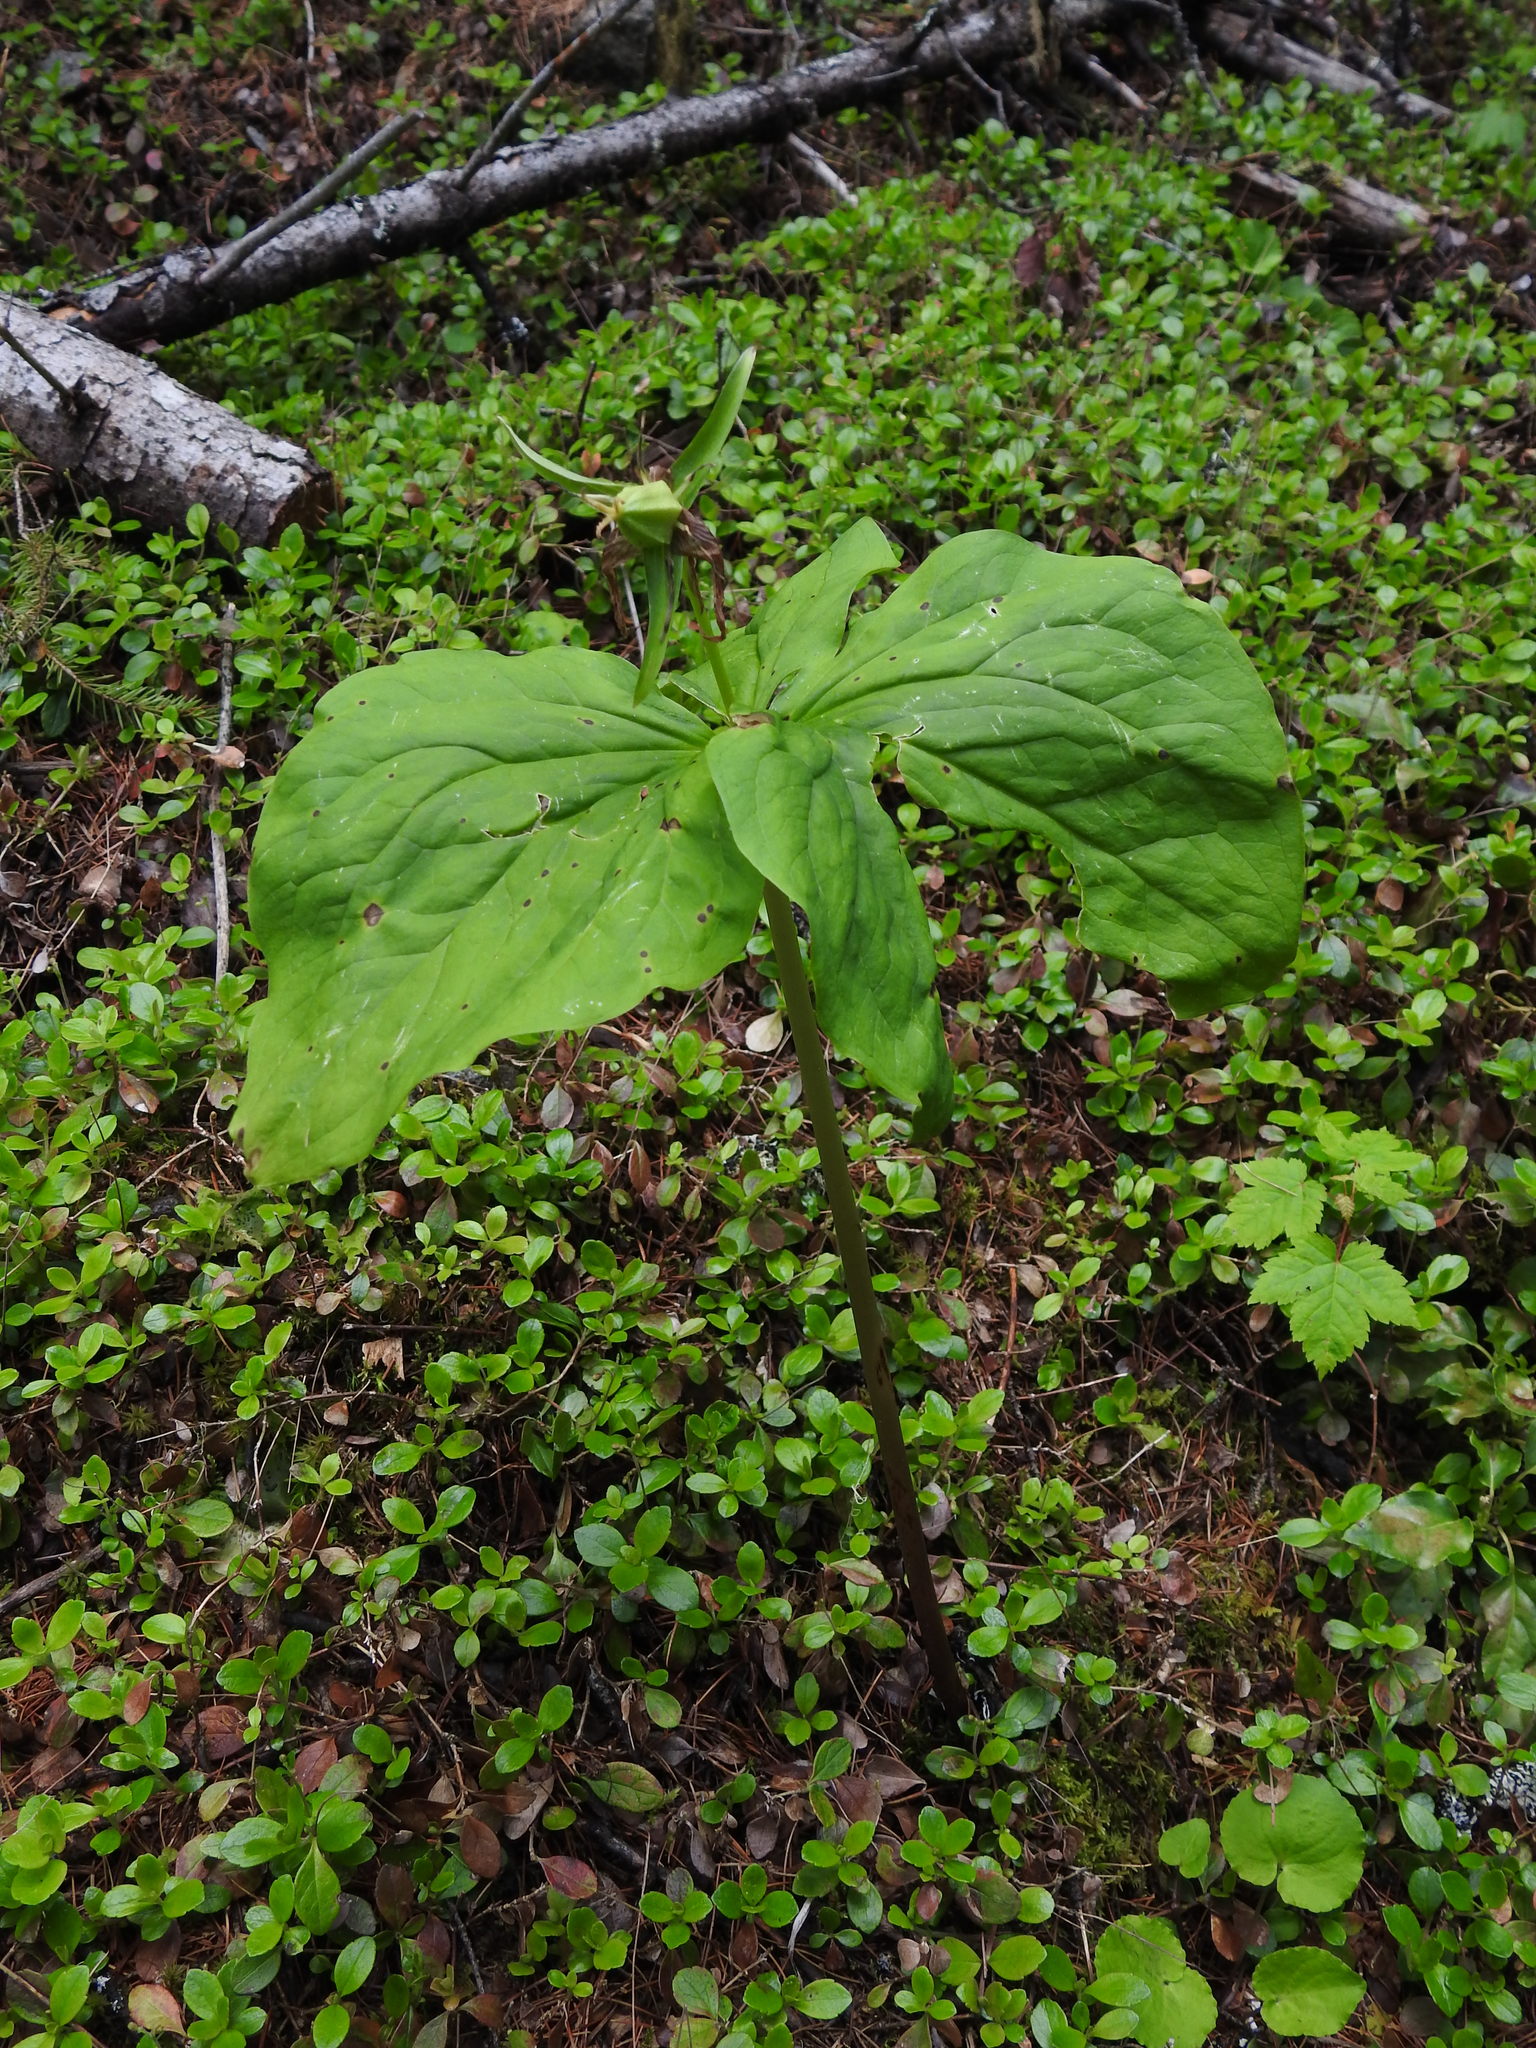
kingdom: Plantae
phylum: Tracheophyta
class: Liliopsida
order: Liliales
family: Melanthiaceae
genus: Trillium
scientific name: Trillium ovatum
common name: Pacific trillium
